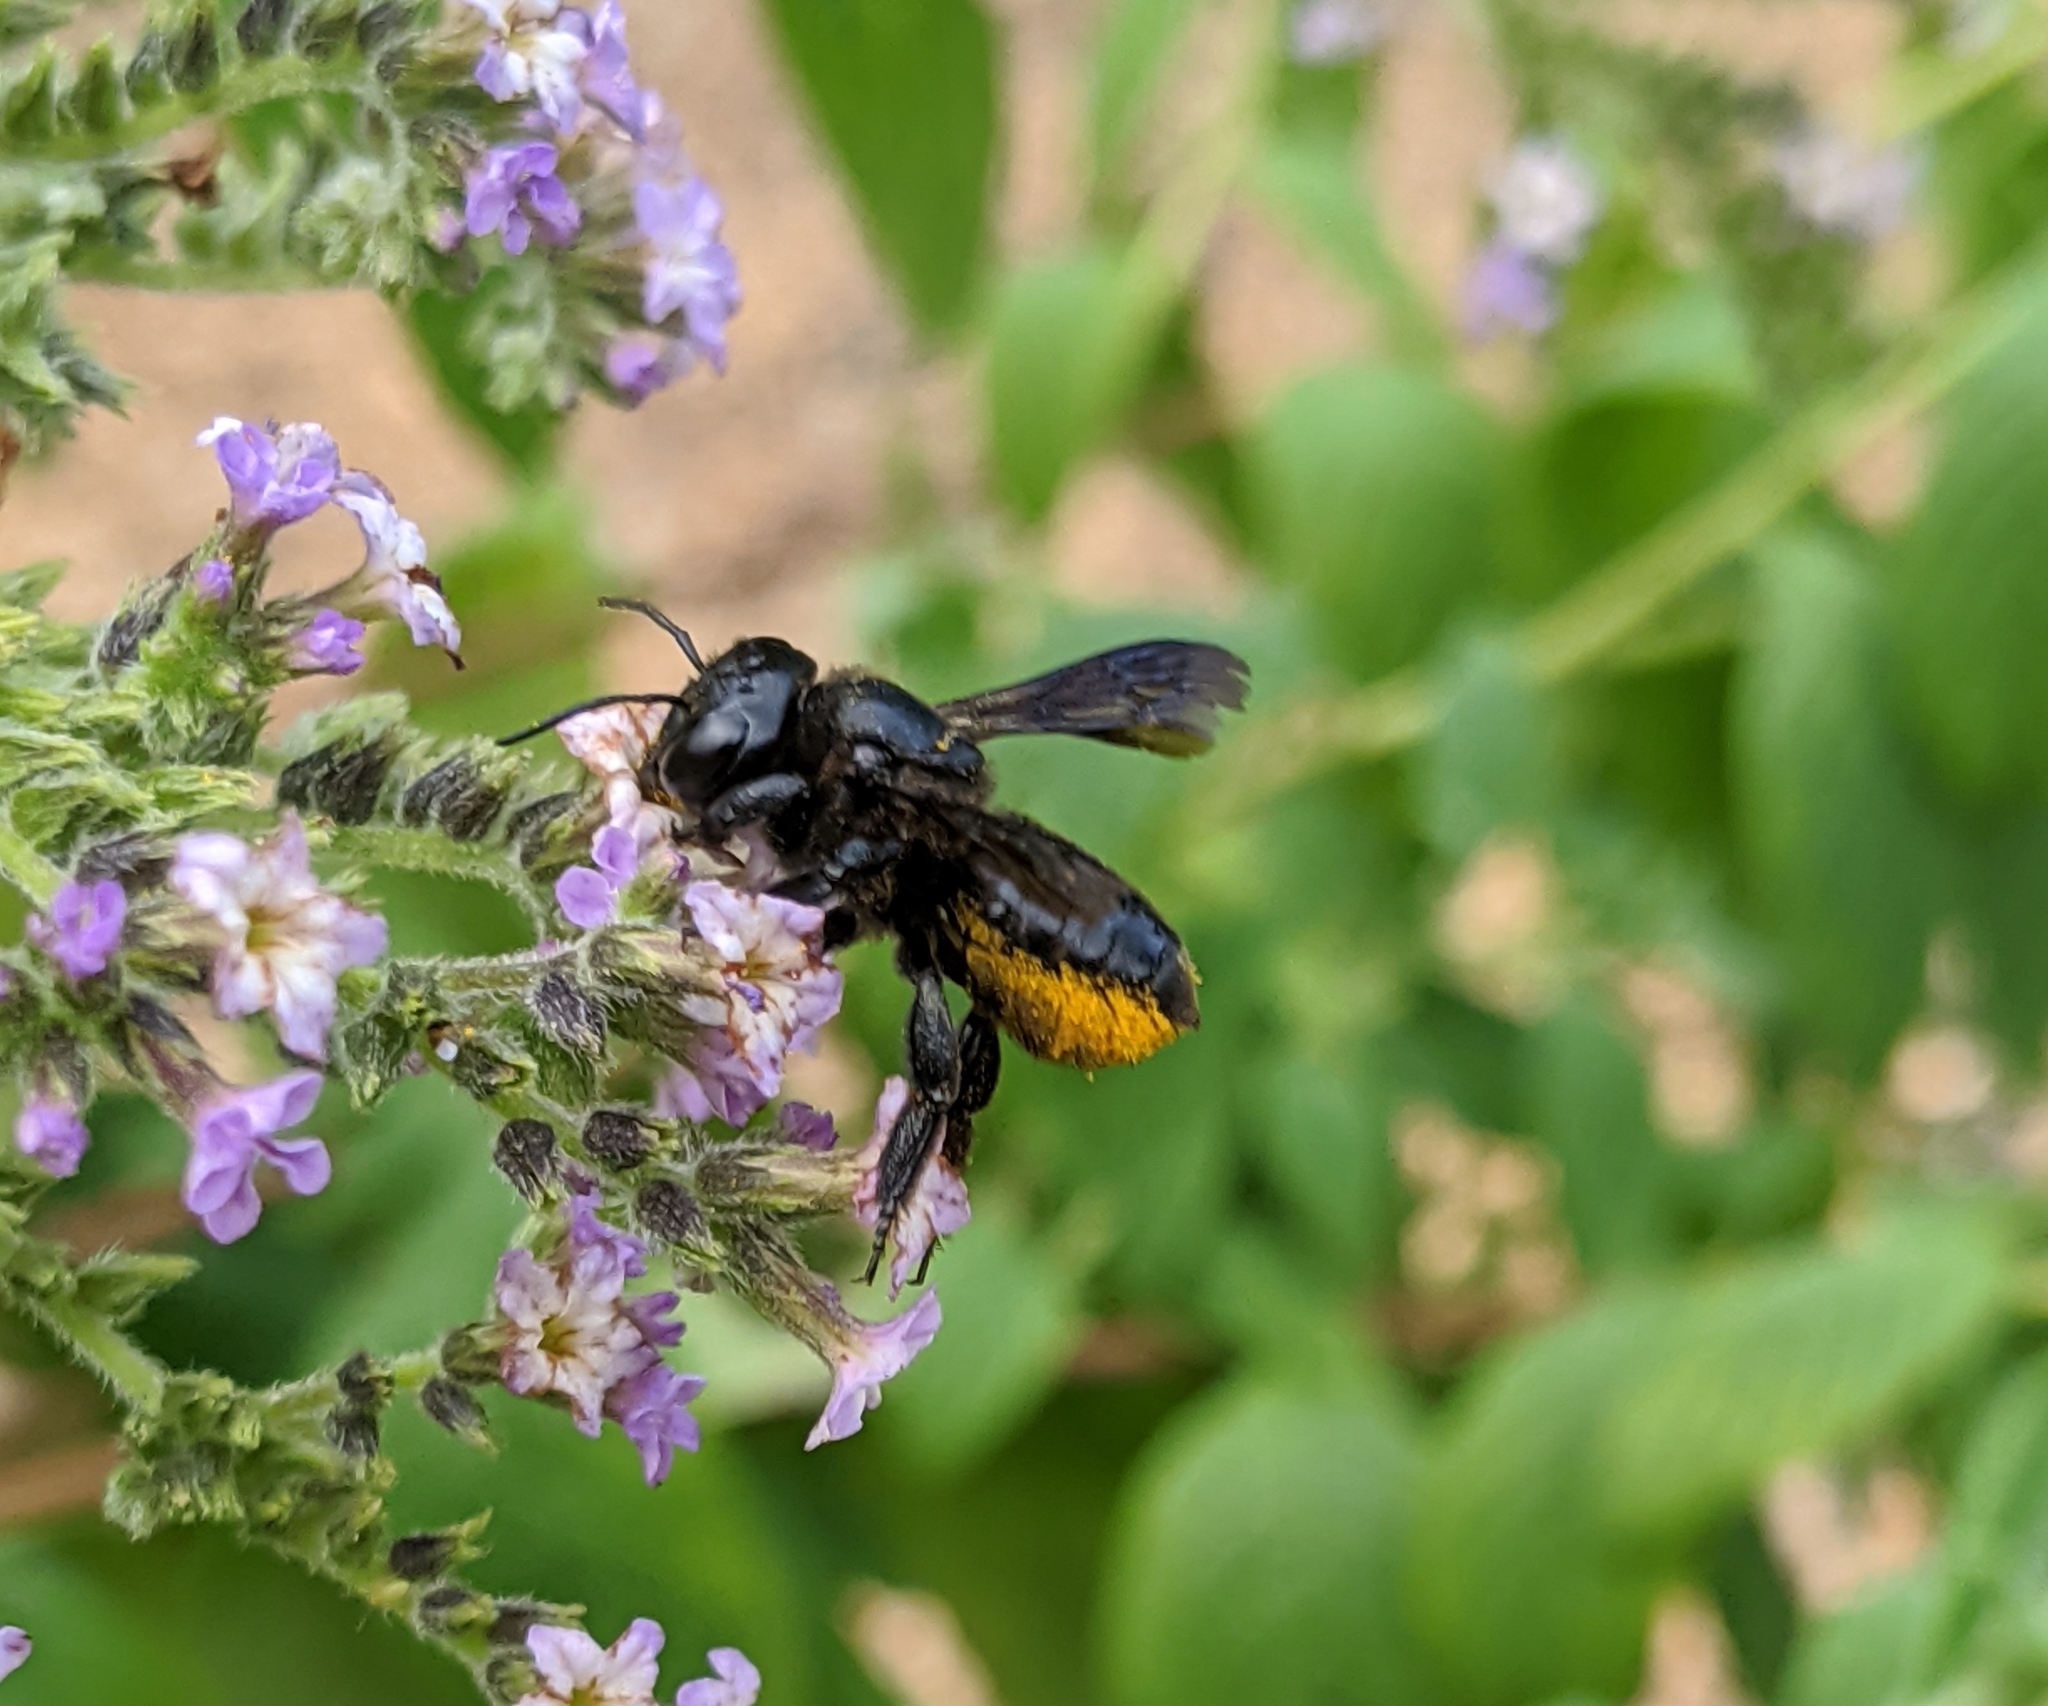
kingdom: Animalia
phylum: Arthropoda
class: Insecta
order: Hymenoptera
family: Megachilidae
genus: Megachile
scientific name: Megachile xylocopoides
